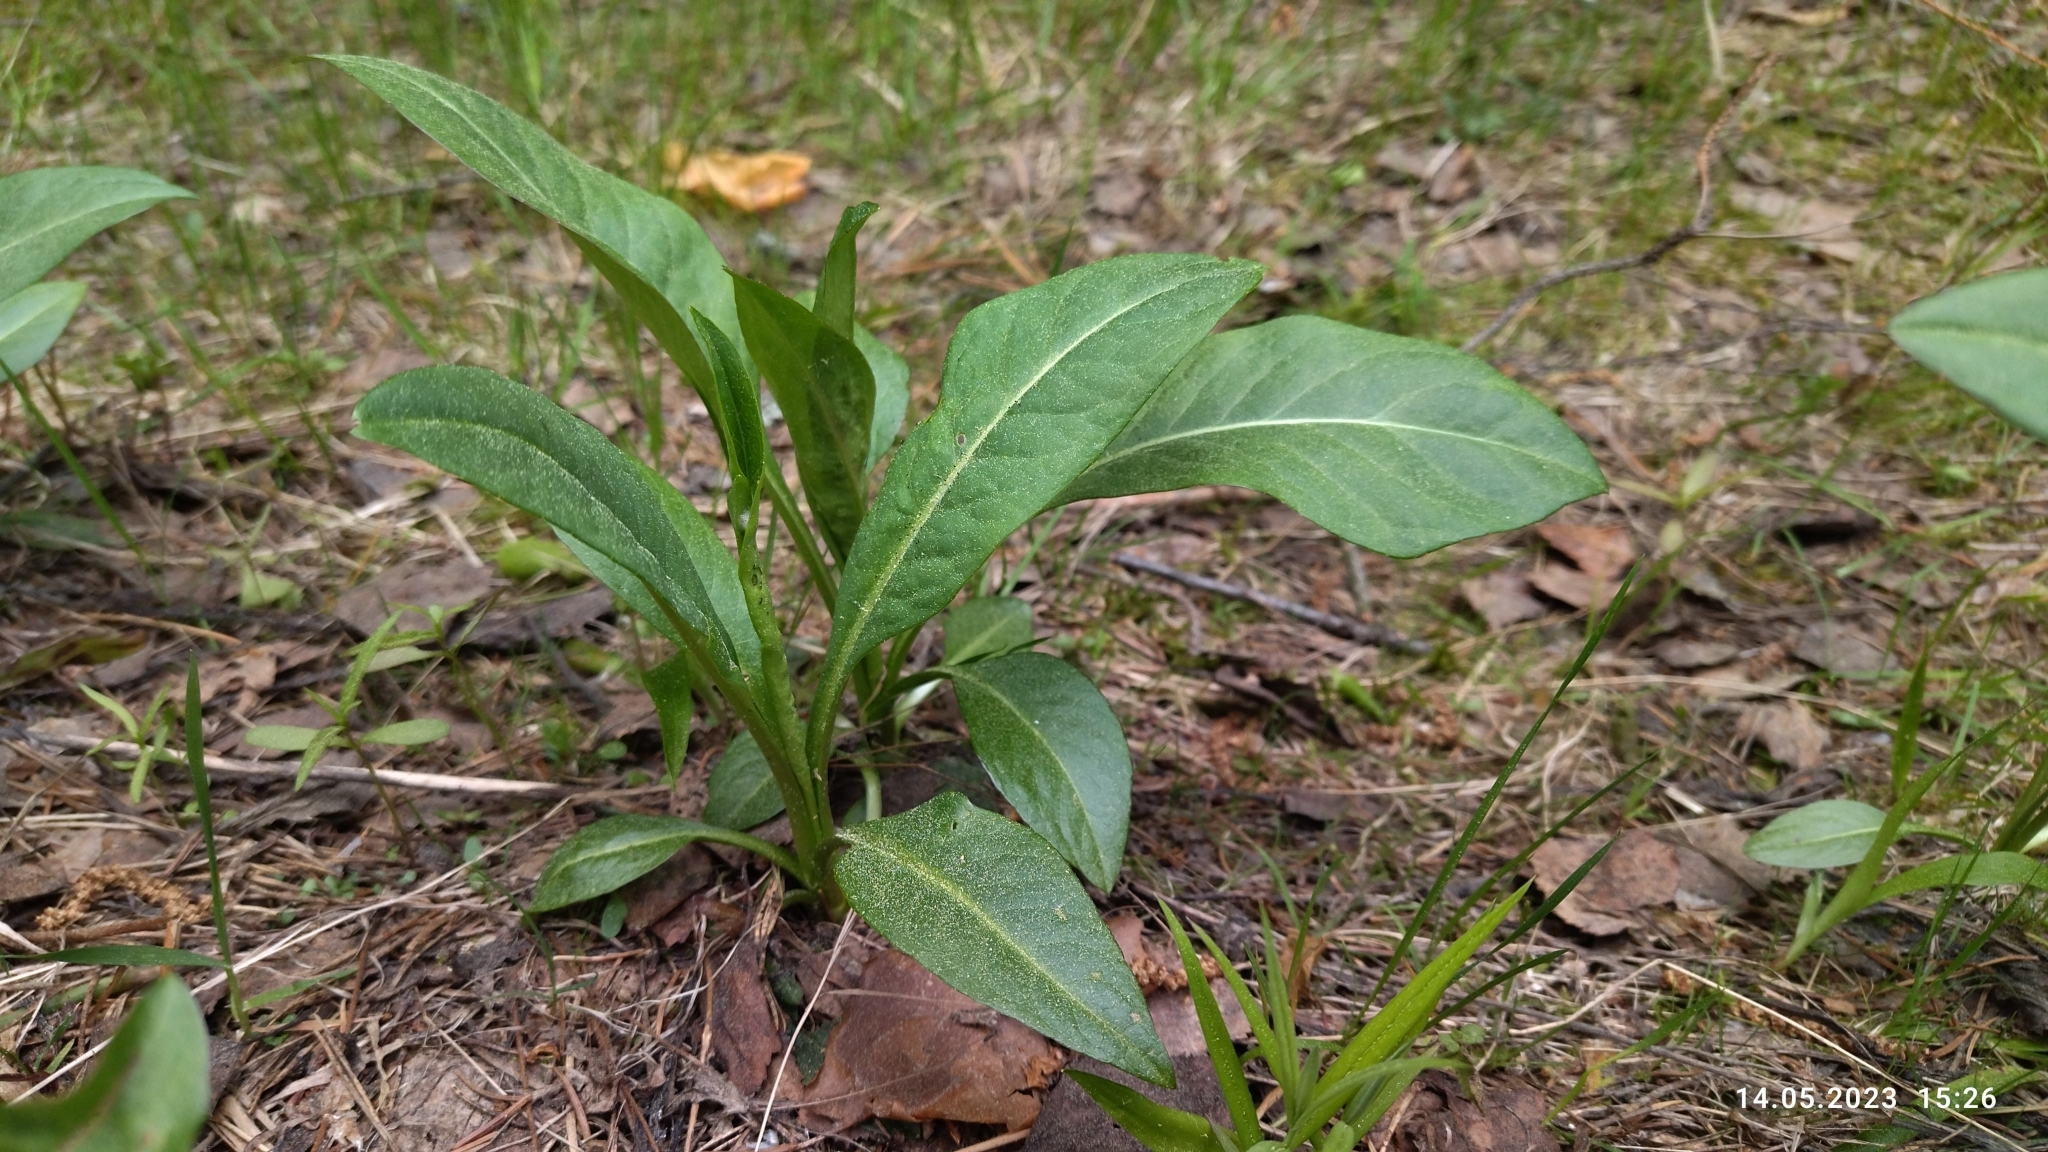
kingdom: Plantae
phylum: Tracheophyta
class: Magnoliopsida
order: Dipsacales
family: Caprifoliaceae
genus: Succisa
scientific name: Succisa pratensis
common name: Devil's-bit
